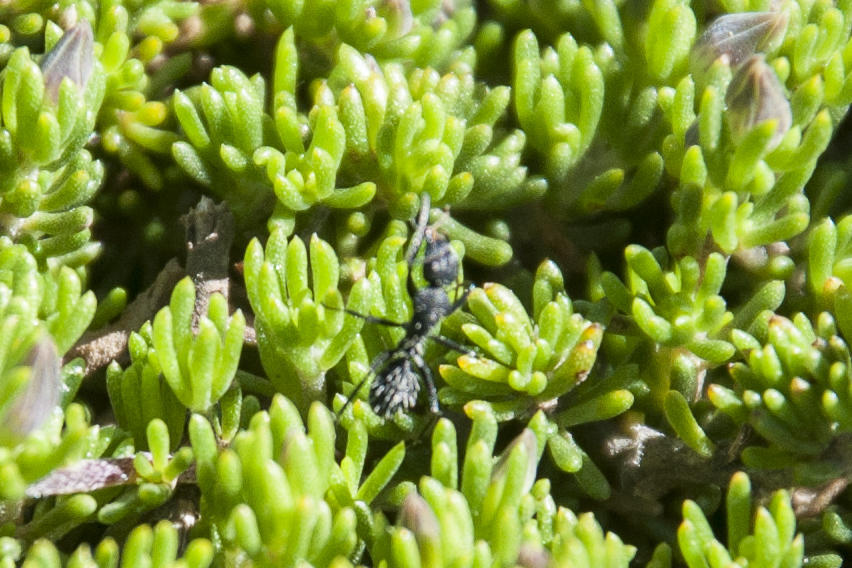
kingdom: Animalia
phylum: Arthropoda
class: Insecta
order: Hymenoptera
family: Formicidae
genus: Camponotus
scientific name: Camponotus niveosetosus
